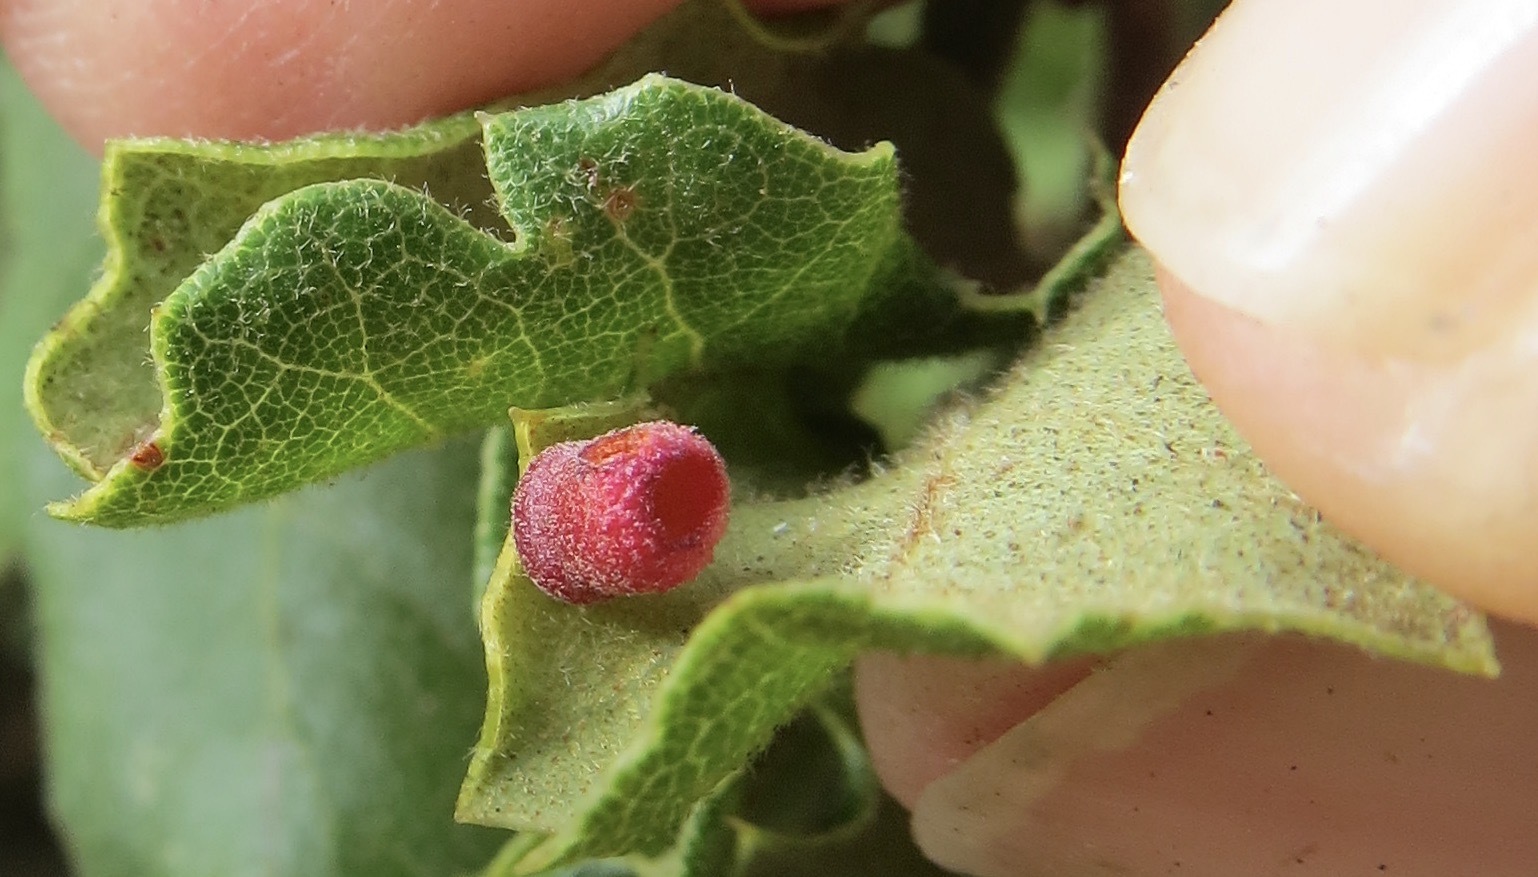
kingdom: Animalia
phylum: Arthropoda
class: Insecta
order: Hymenoptera
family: Cynipidae
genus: Phylloteras
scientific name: Phylloteras
